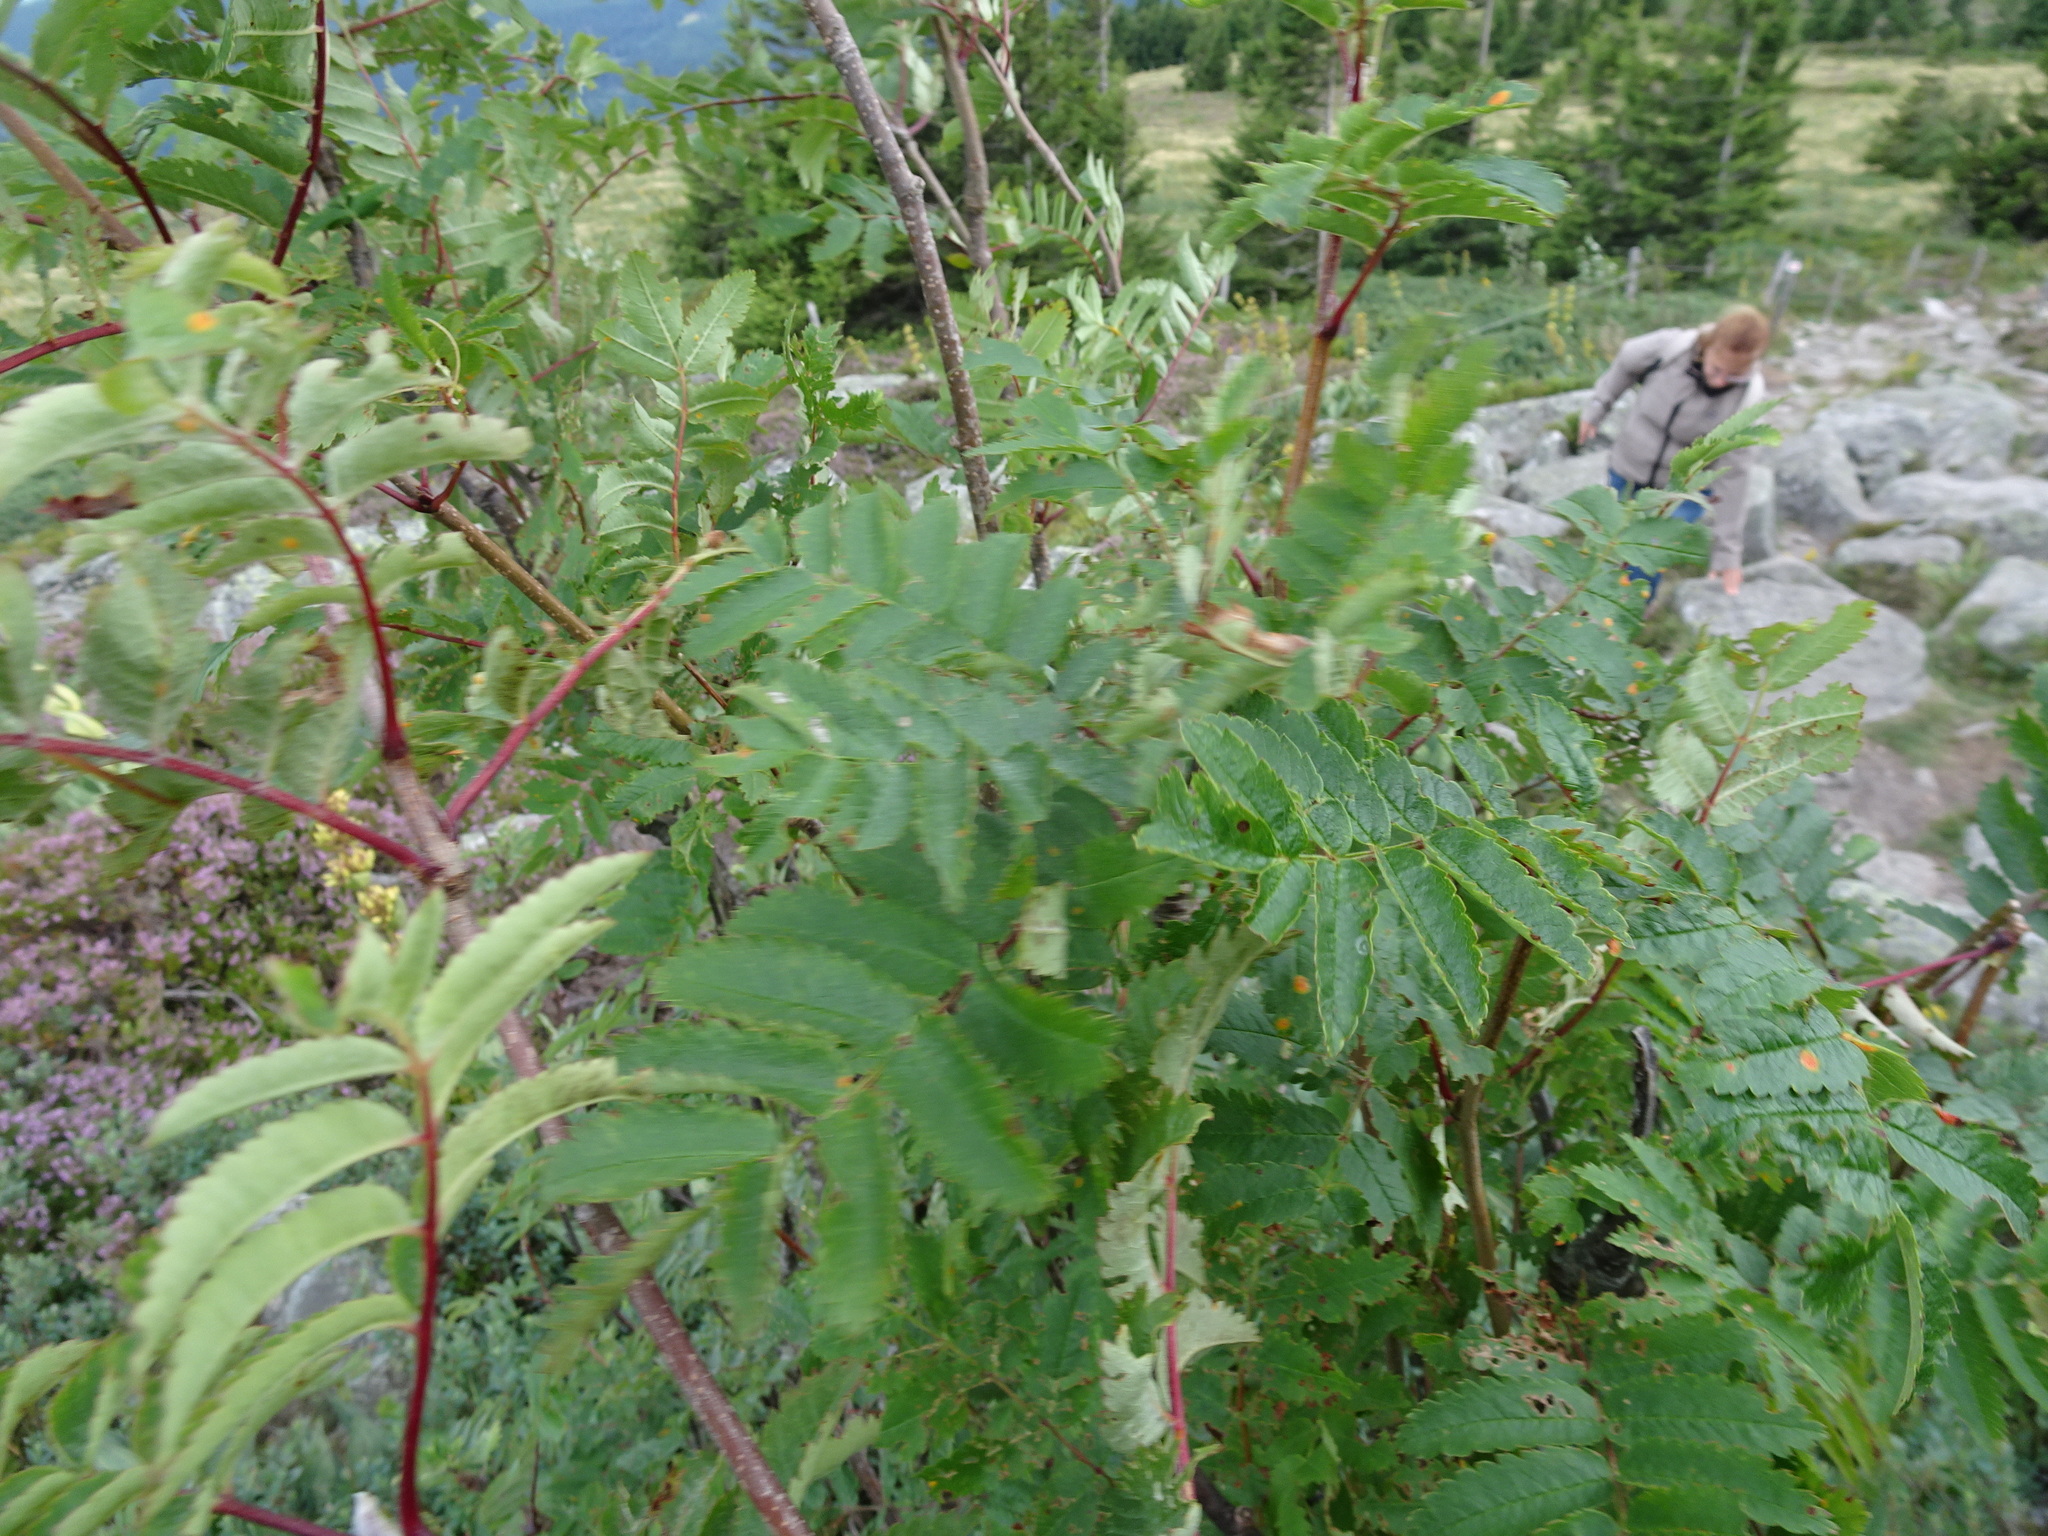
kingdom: Plantae
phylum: Tracheophyta
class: Magnoliopsida
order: Rosales
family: Rosaceae
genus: Sorbus
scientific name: Sorbus aucuparia
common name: Rowan
